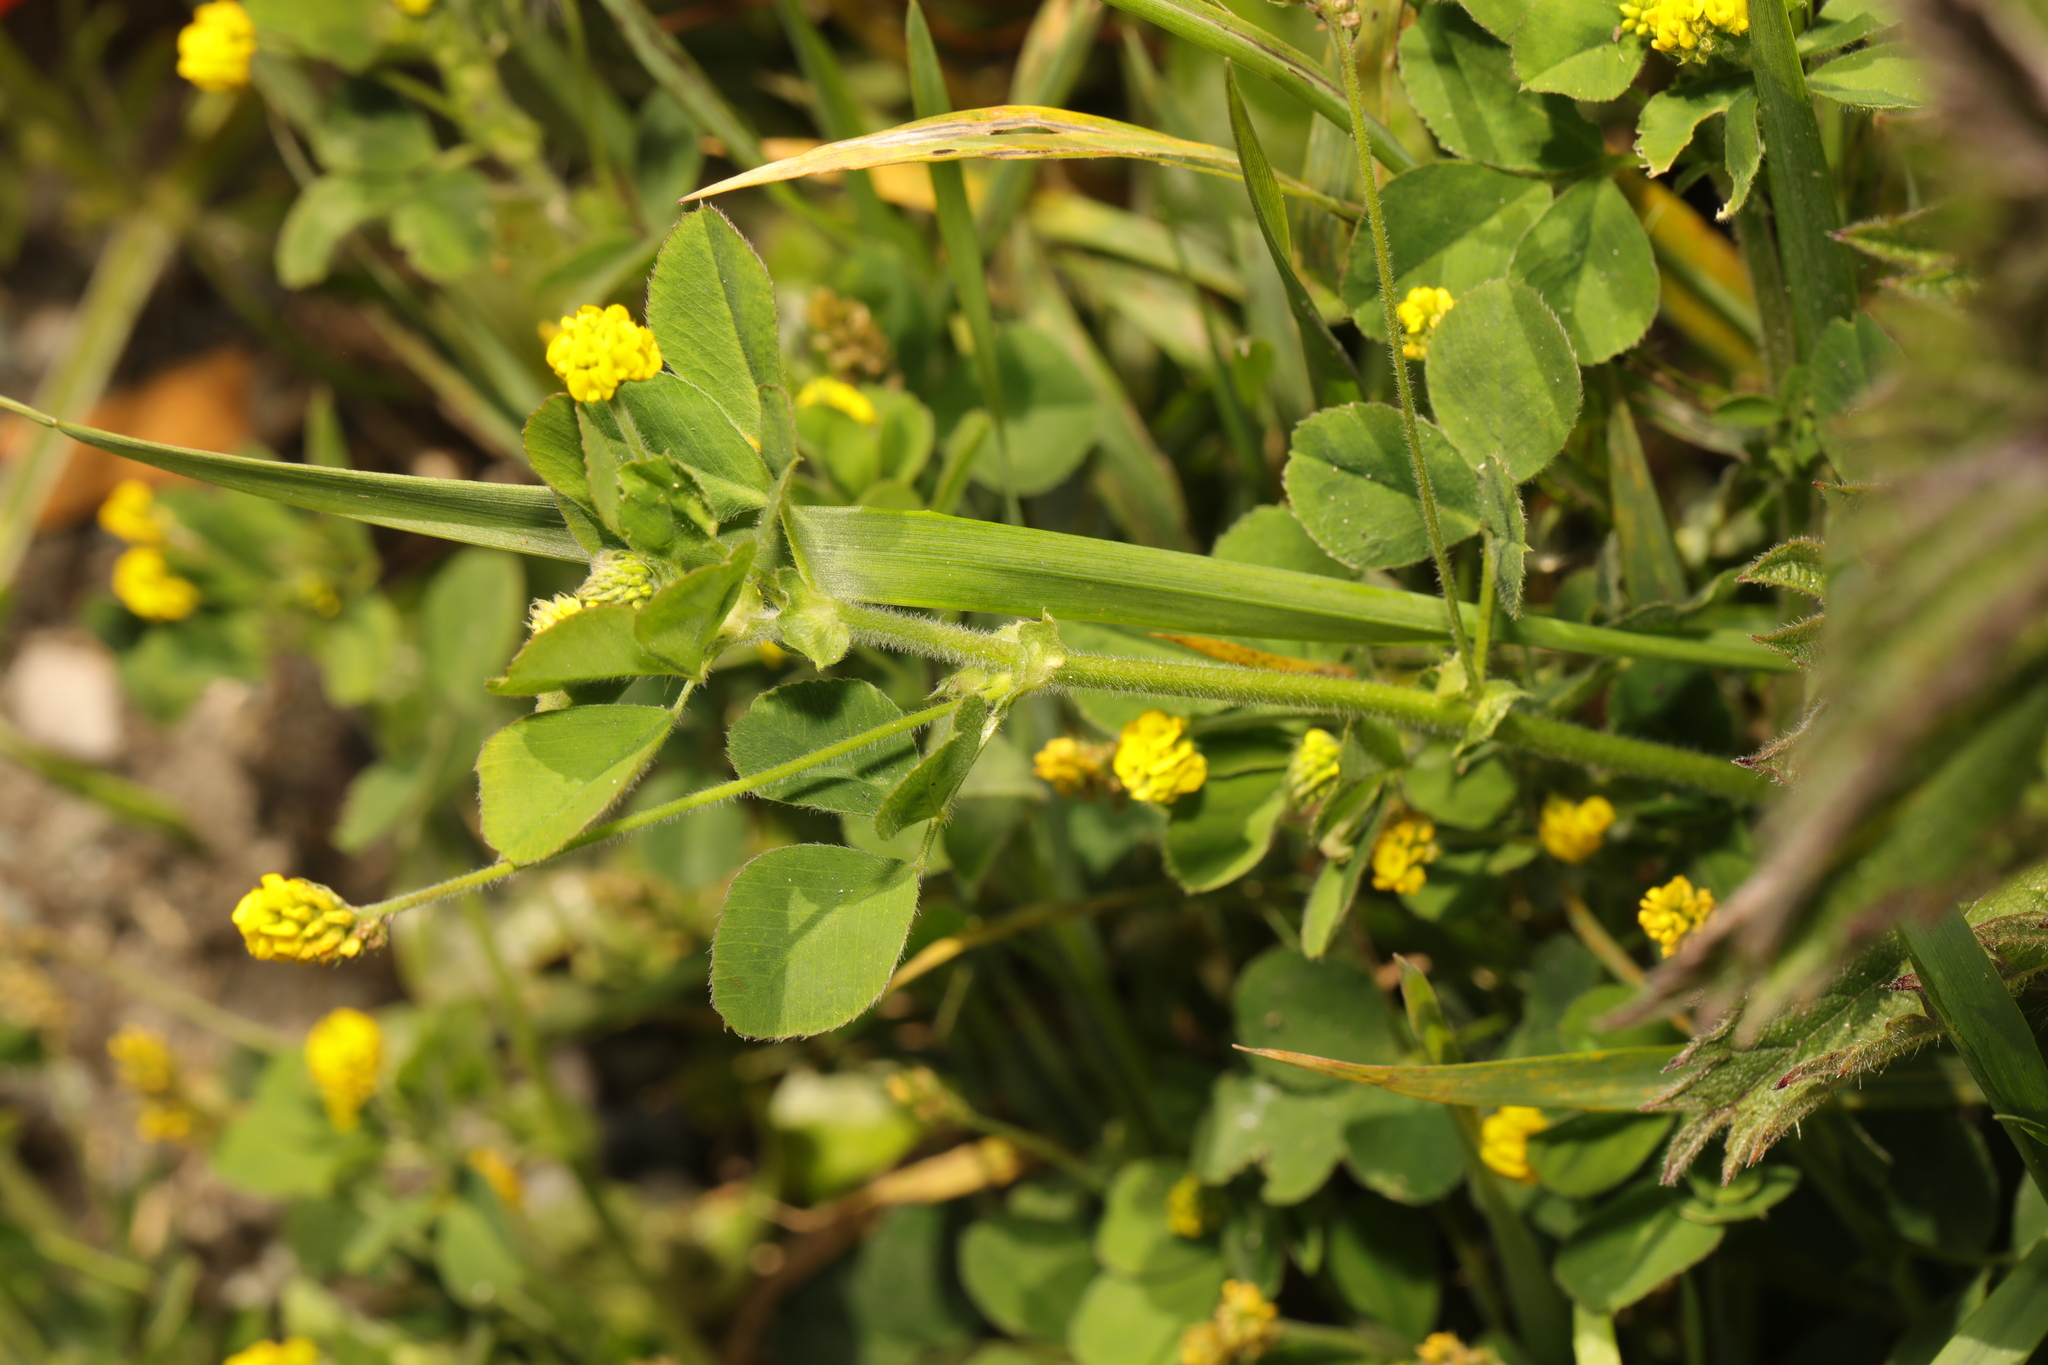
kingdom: Plantae
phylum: Tracheophyta
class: Magnoliopsida
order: Fabales
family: Fabaceae
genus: Medicago
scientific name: Medicago lupulina
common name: Black medick
